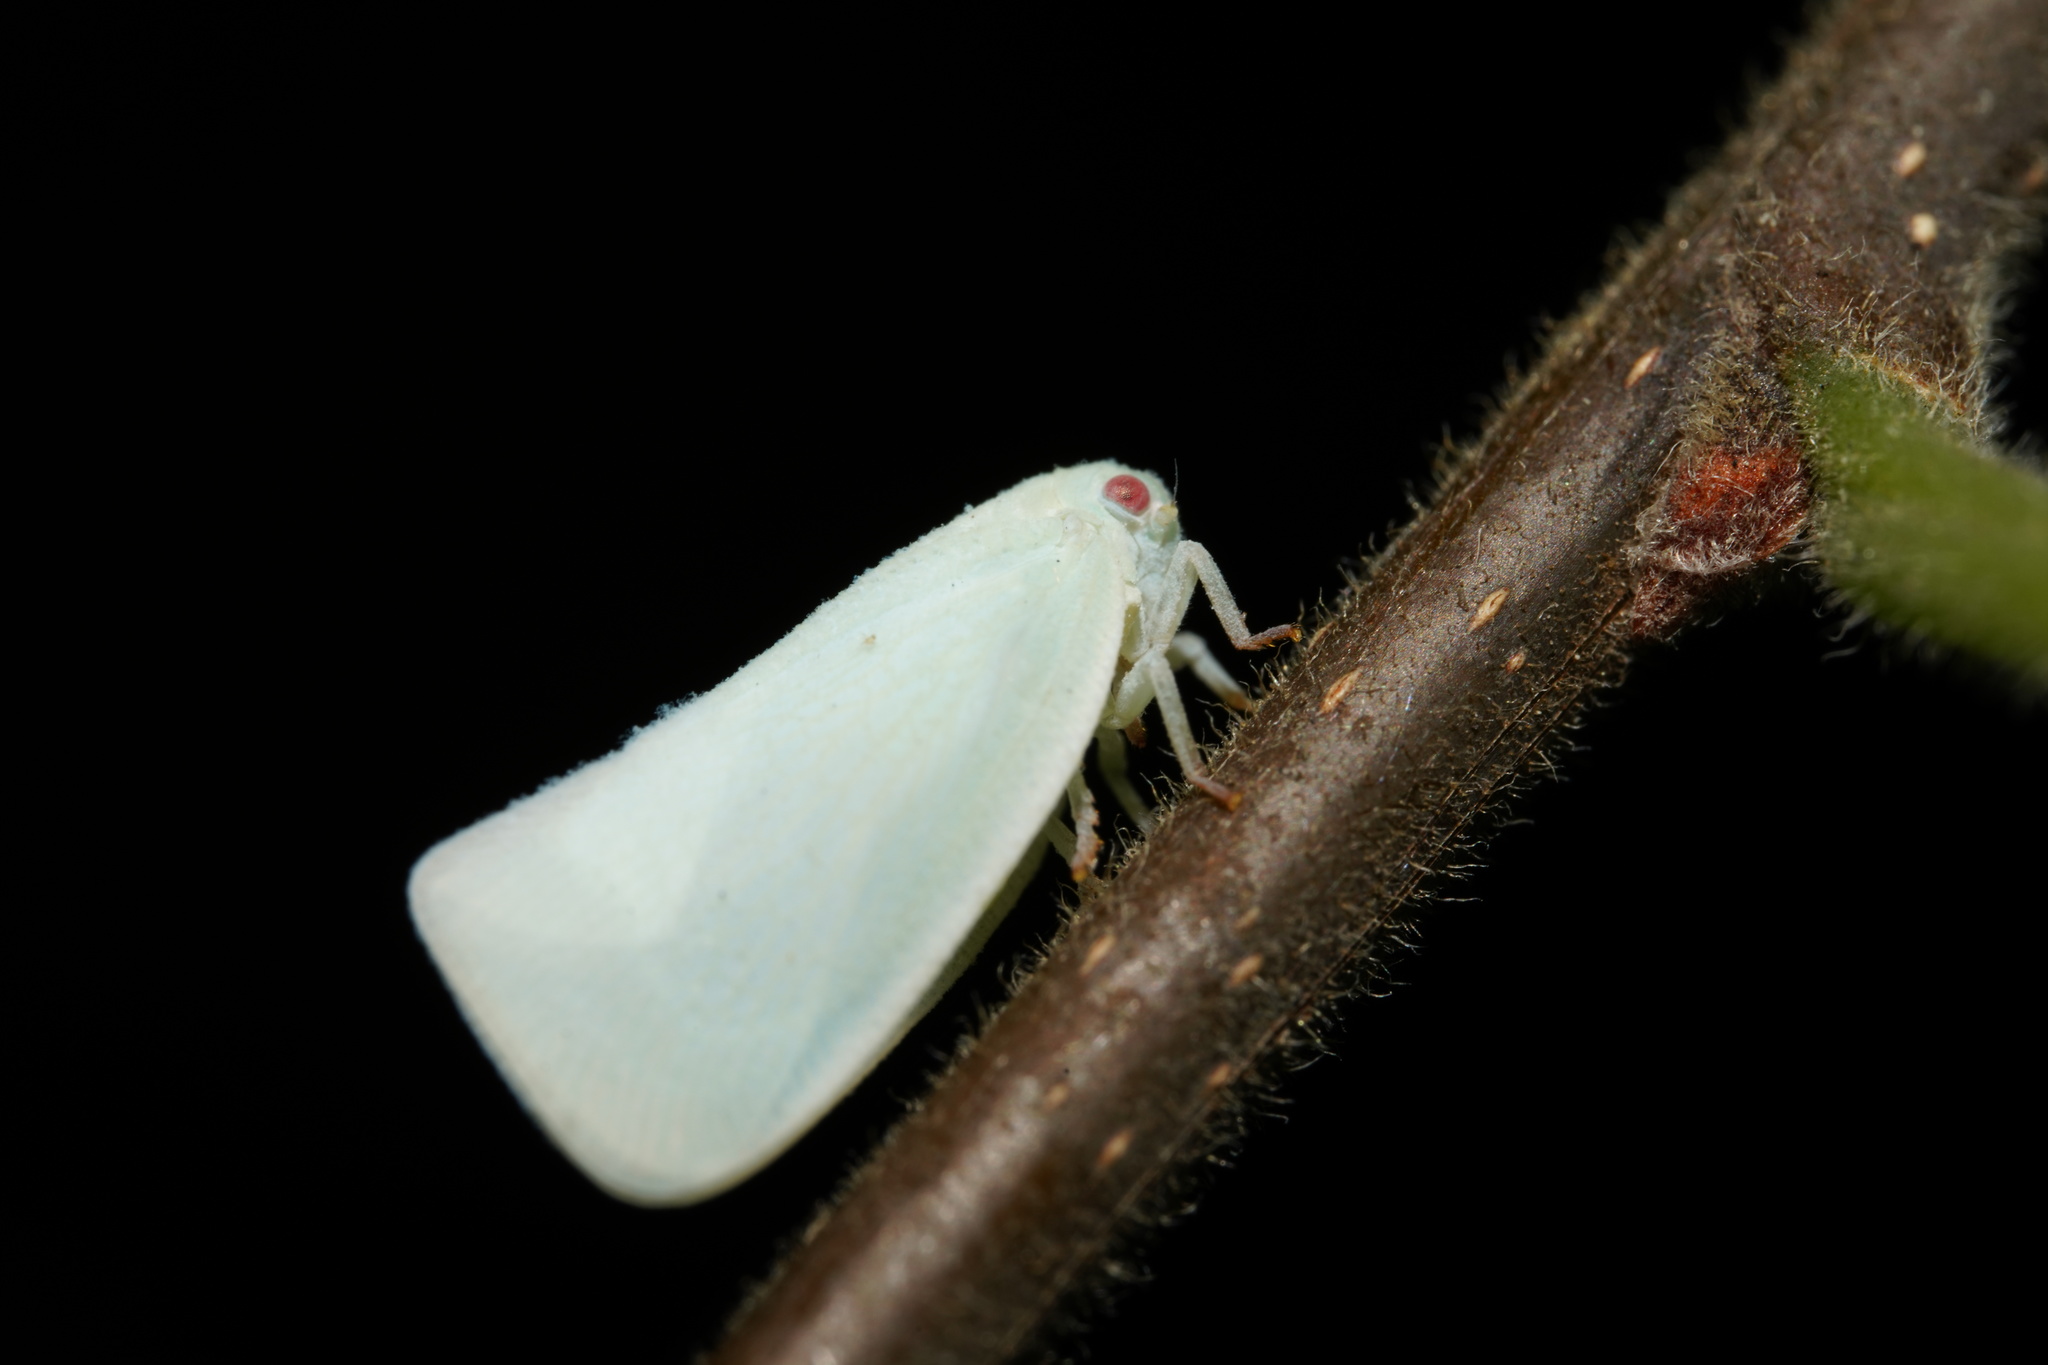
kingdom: Animalia
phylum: Arthropoda
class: Insecta
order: Hemiptera
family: Flatidae
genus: Flatormenis
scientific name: Flatormenis proxima
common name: Northern flatid planthopper
